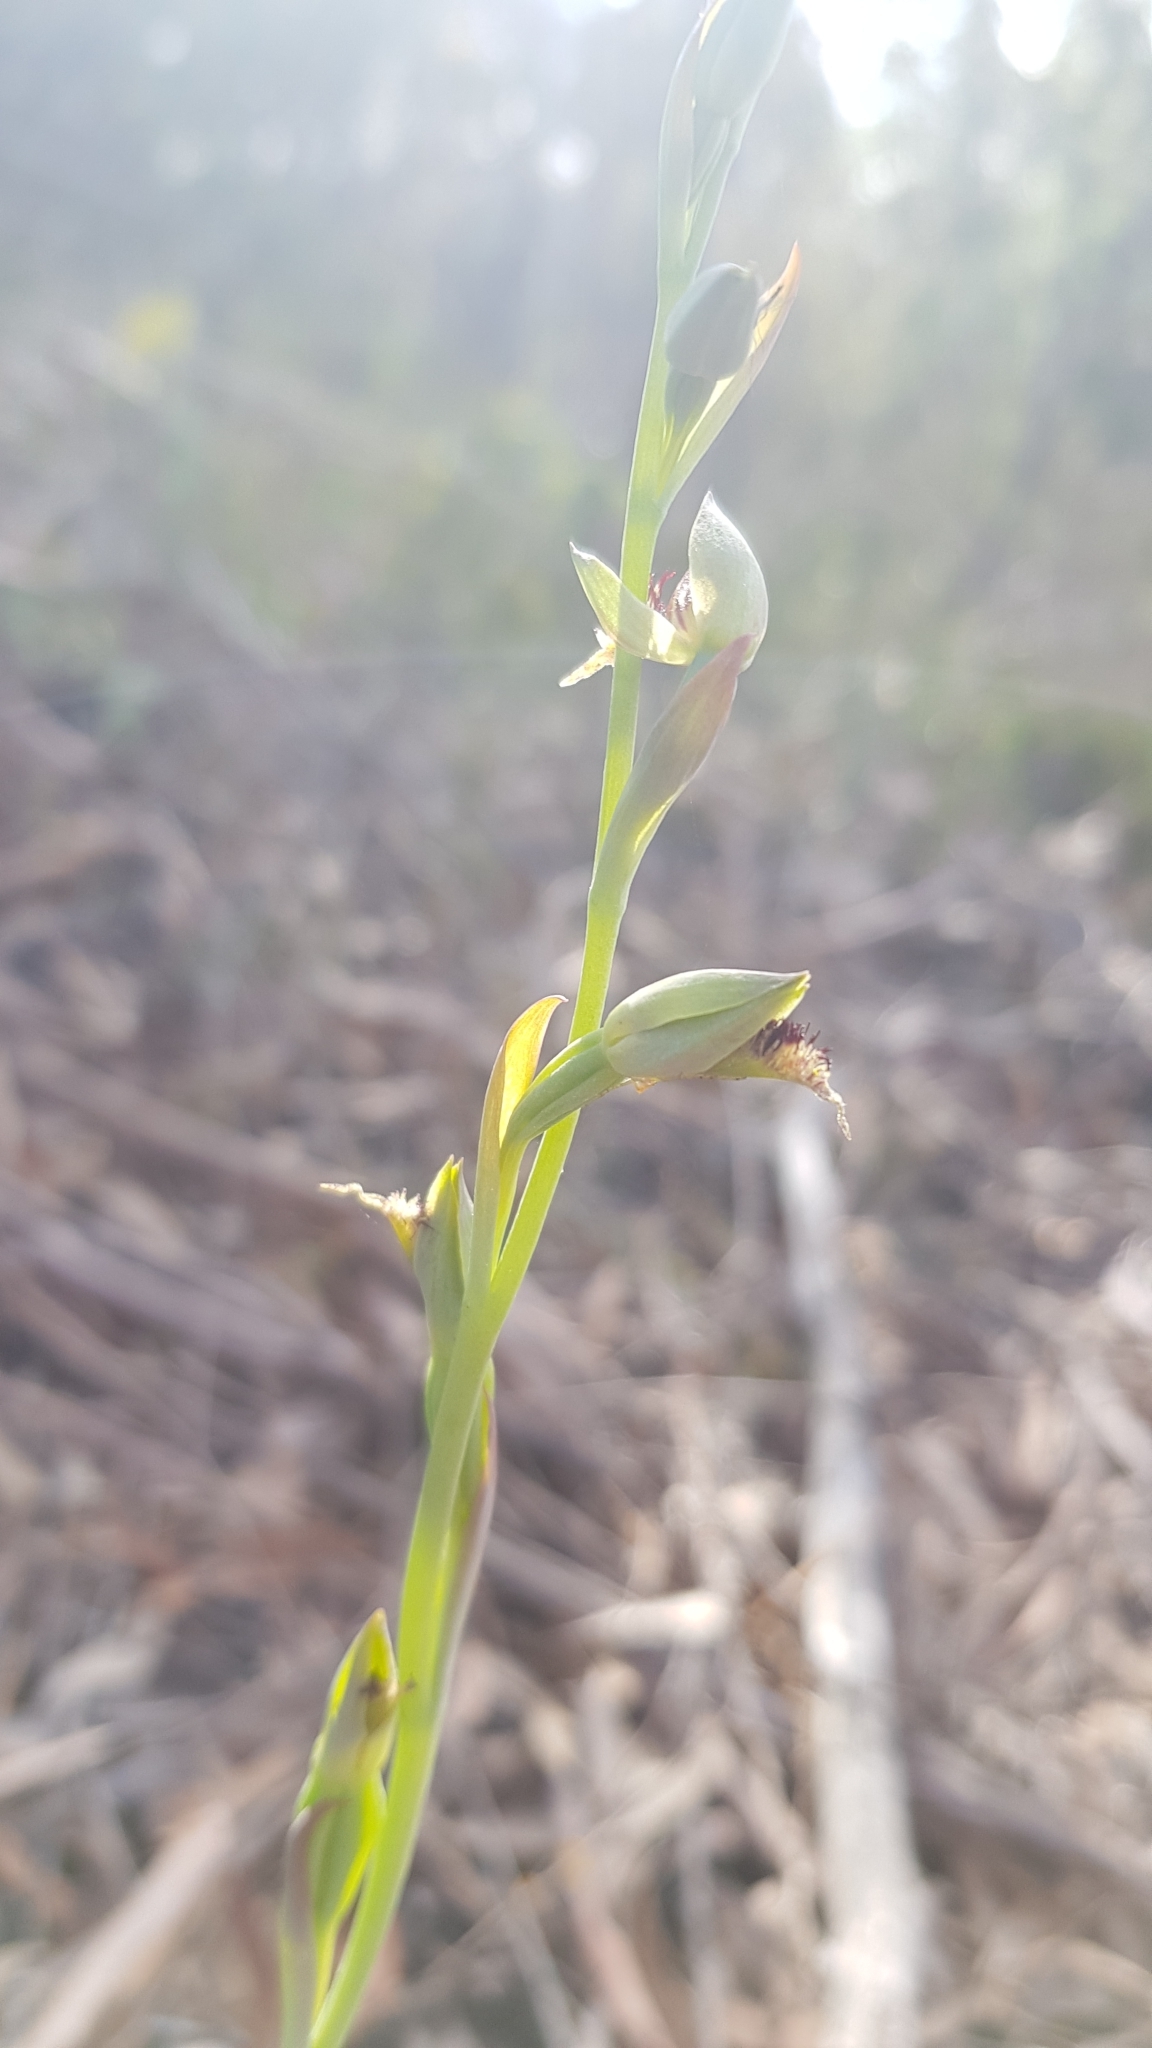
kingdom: Plantae
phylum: Tracheophyta
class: Liliopsida
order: Asparagales
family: Orchidaceae
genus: Calochilus
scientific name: Calochilus campestris
